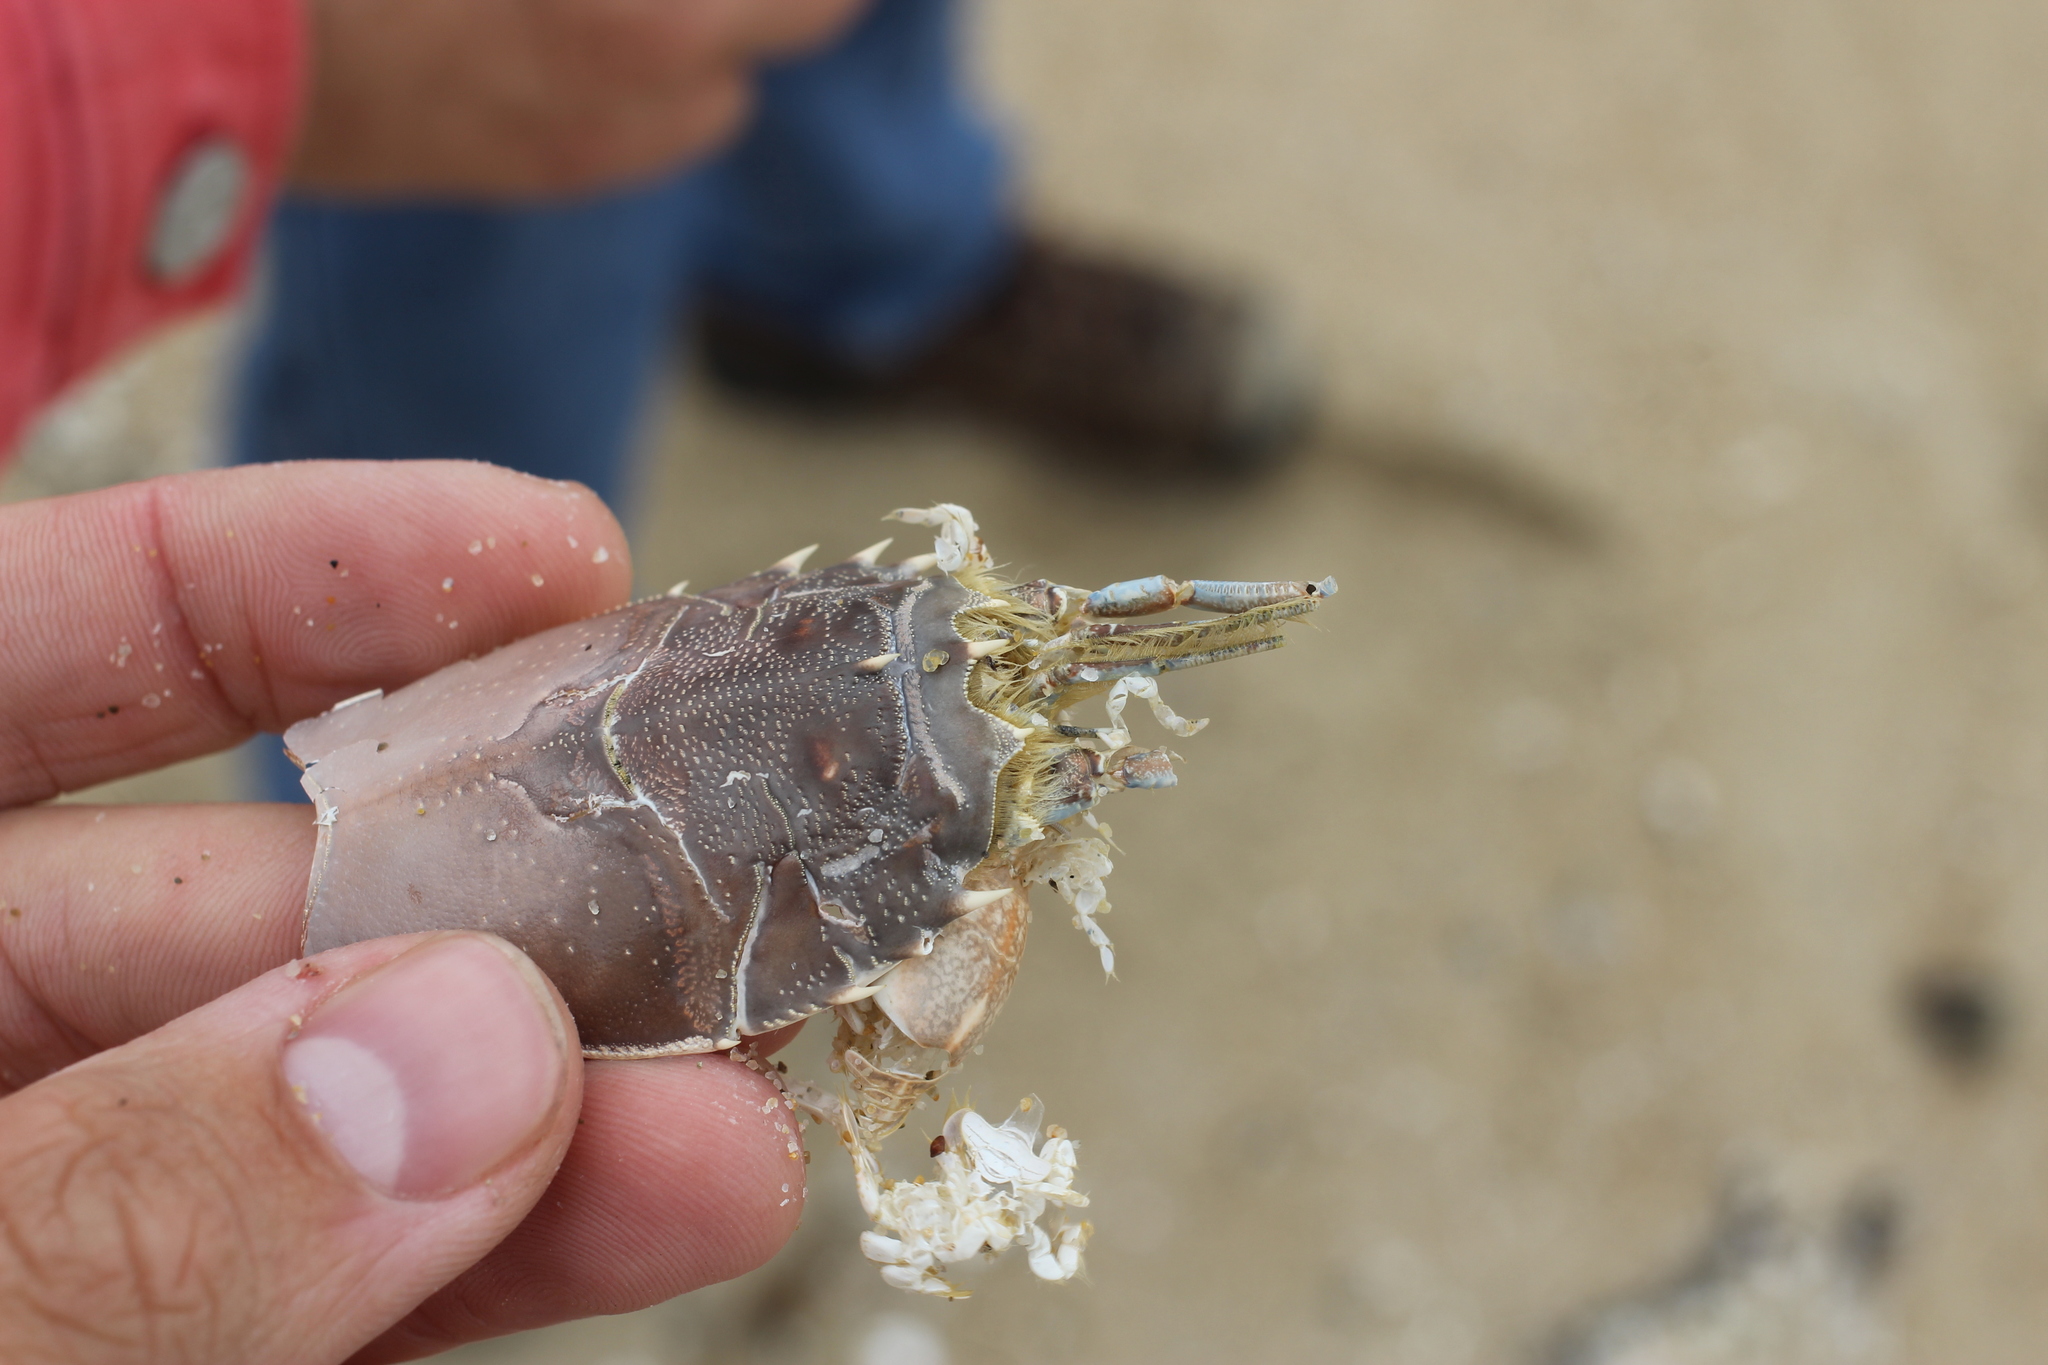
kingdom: Animalia
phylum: Arthropoda
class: Malacostraca
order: Decapoda
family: Blepharipodidae
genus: Blepharipoda
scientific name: Blepharipoda occidentalis
